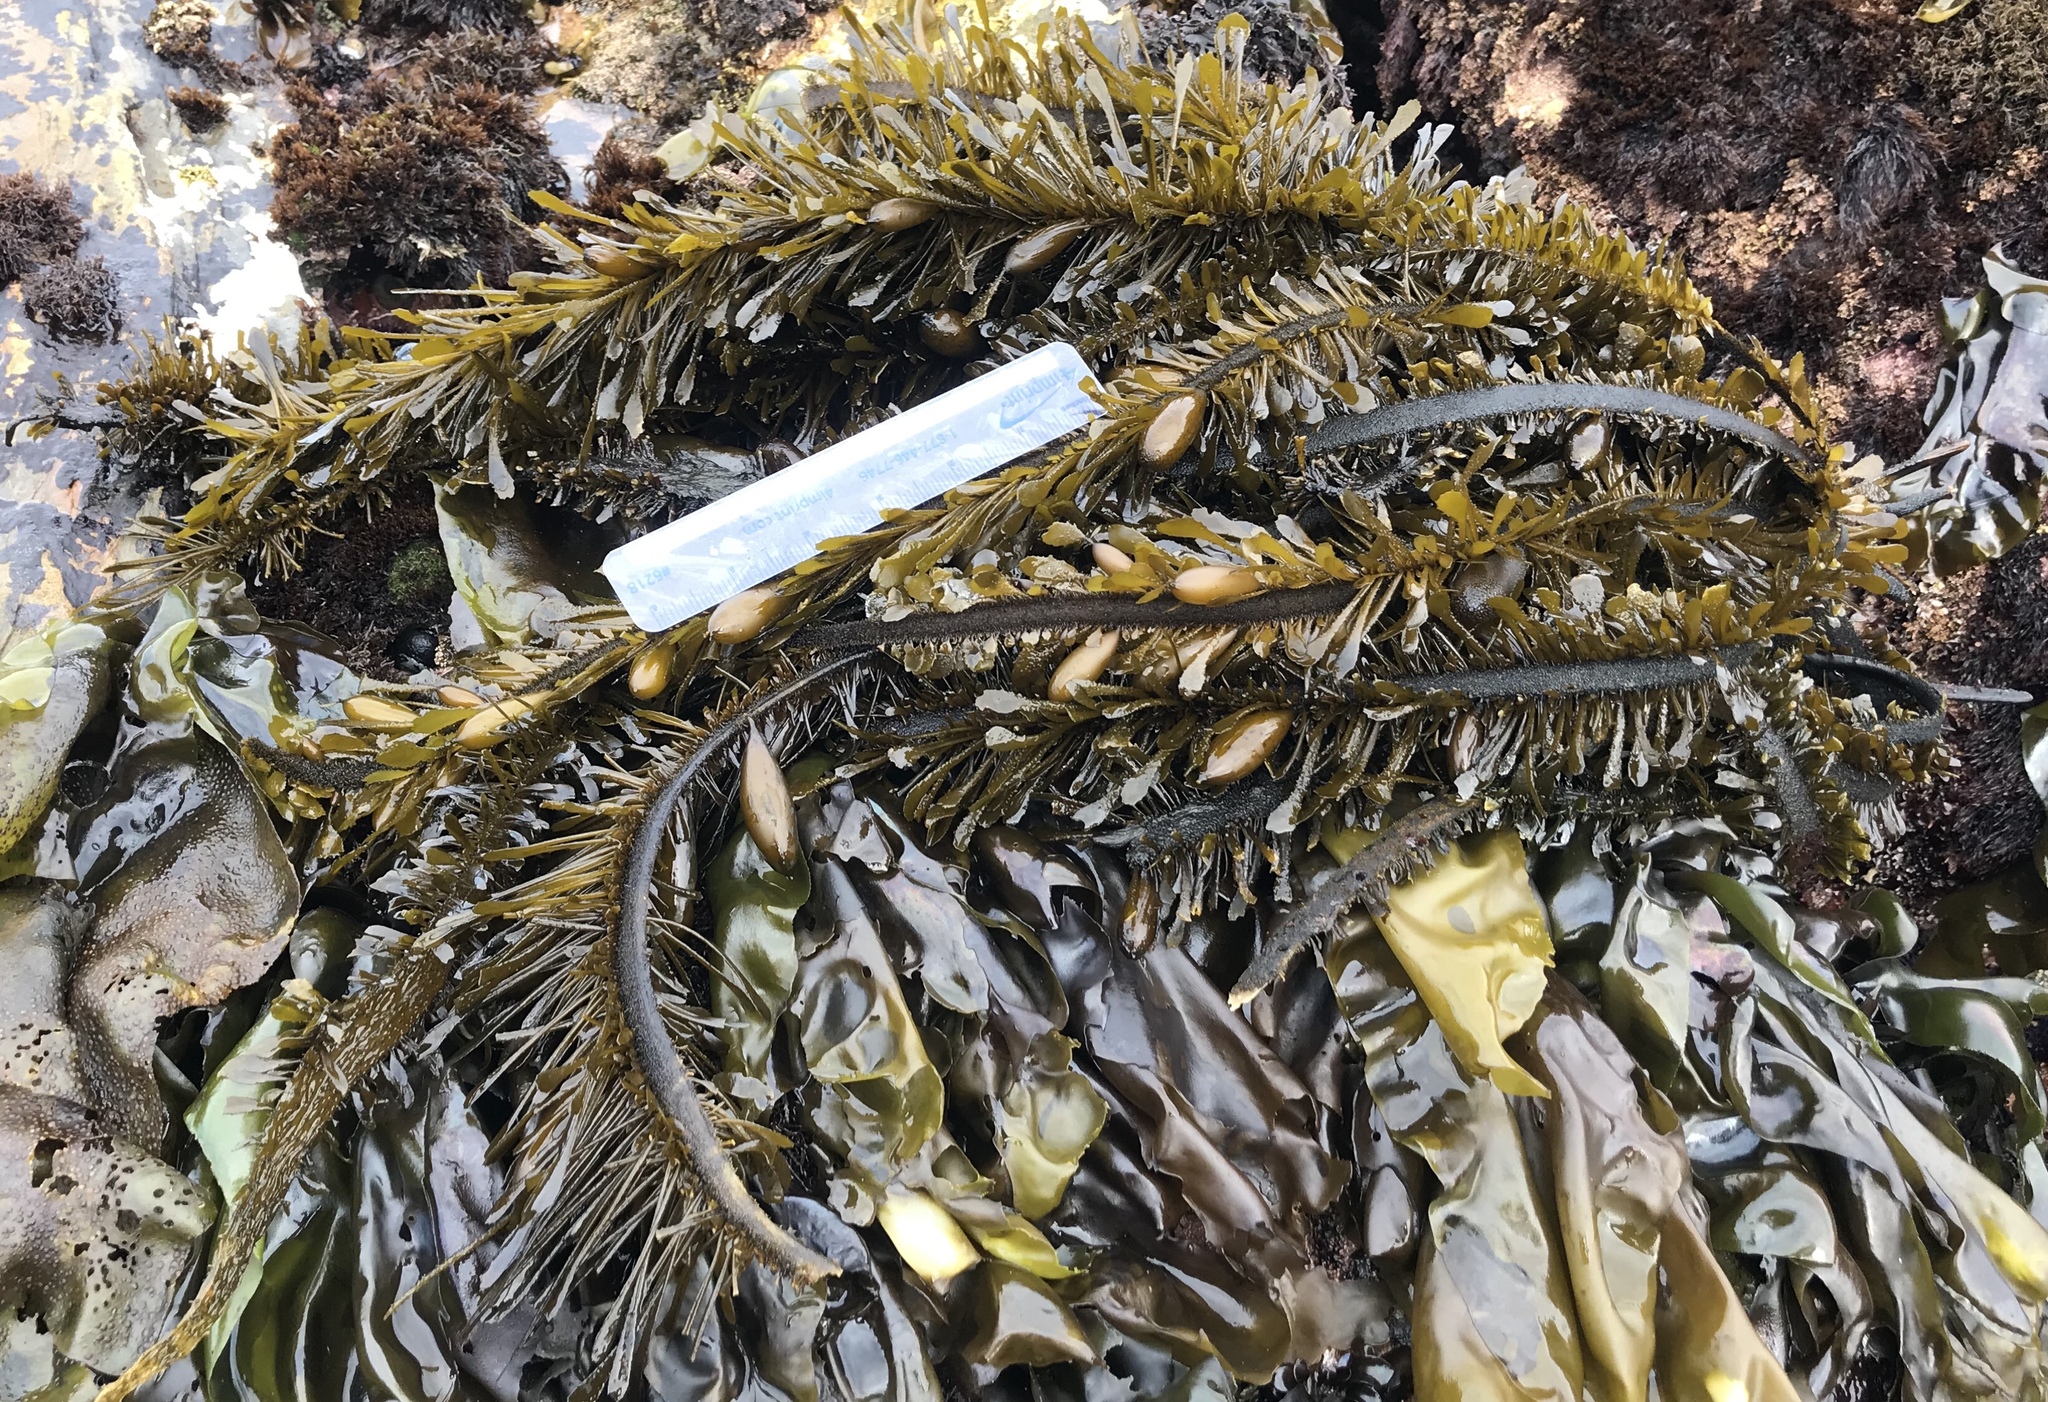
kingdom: Chromista
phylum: Ochrophyta
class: Phaeophyceae
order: Laminariales
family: Lessoniaceae
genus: Egregia
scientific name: Egregia menziesii
